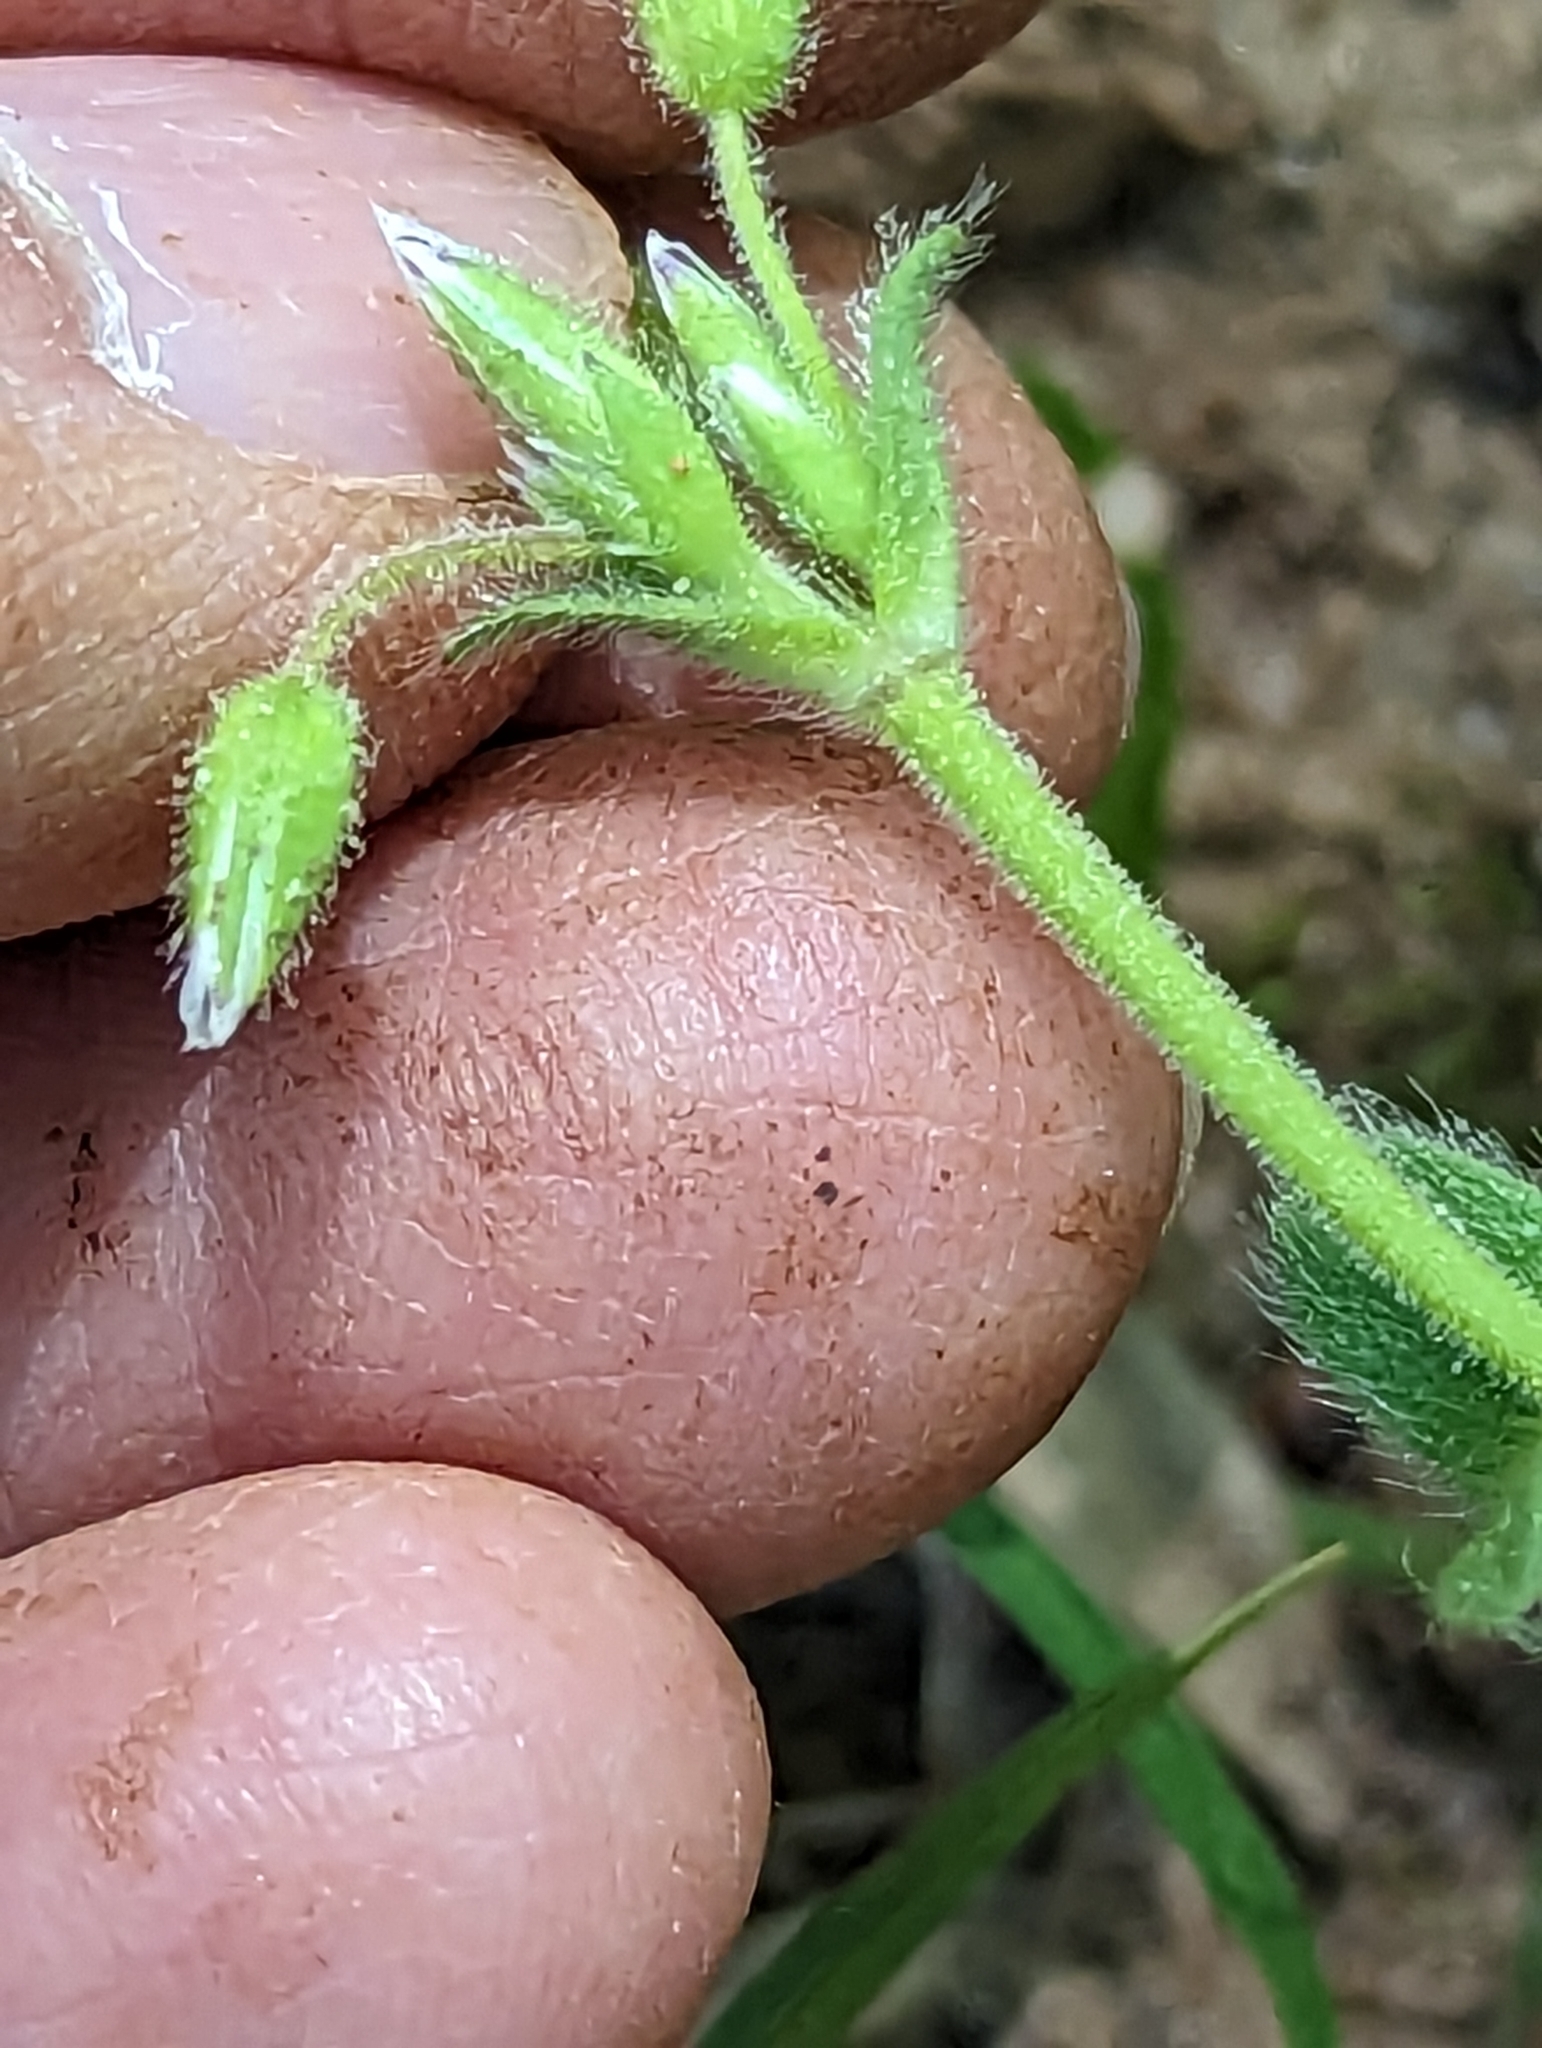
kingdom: Plantae
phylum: Tracheophyta
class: Magnoliopsida
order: Caryophyllales
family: Caryophyllaceae
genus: Cerastium
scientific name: Cerastium fontanum
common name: Common mouse-ear
